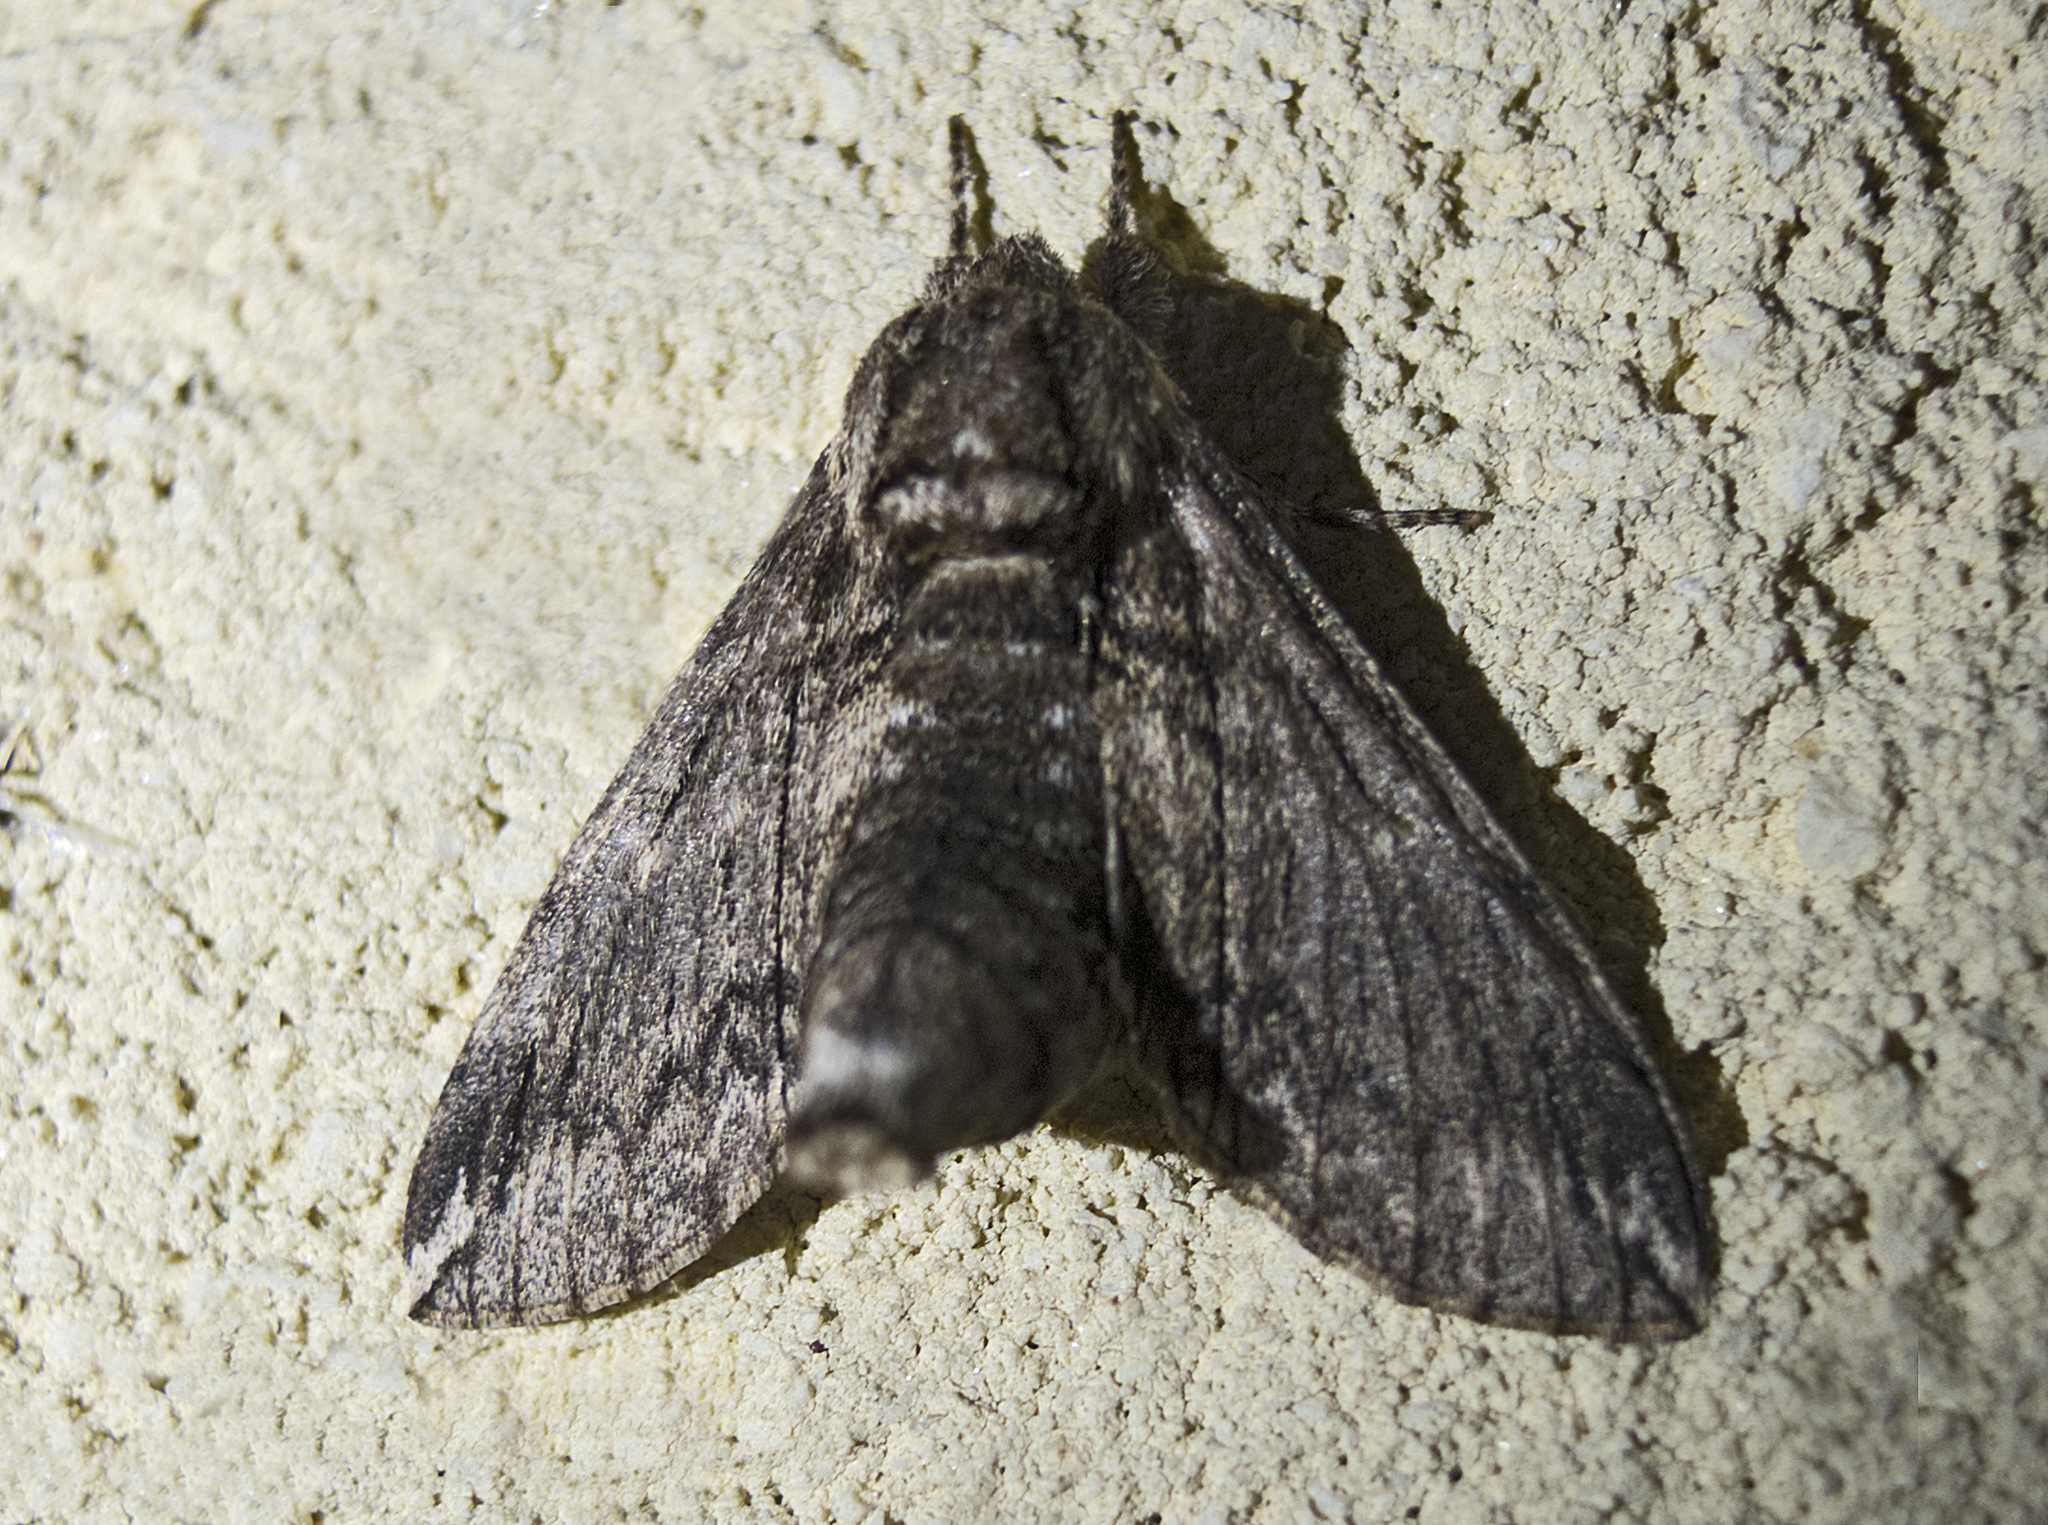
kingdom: Animalia
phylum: Arthropoda
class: Insecta
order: Lepidoptera
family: Sphingidae
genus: Dolbina
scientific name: Dolbina elegans
